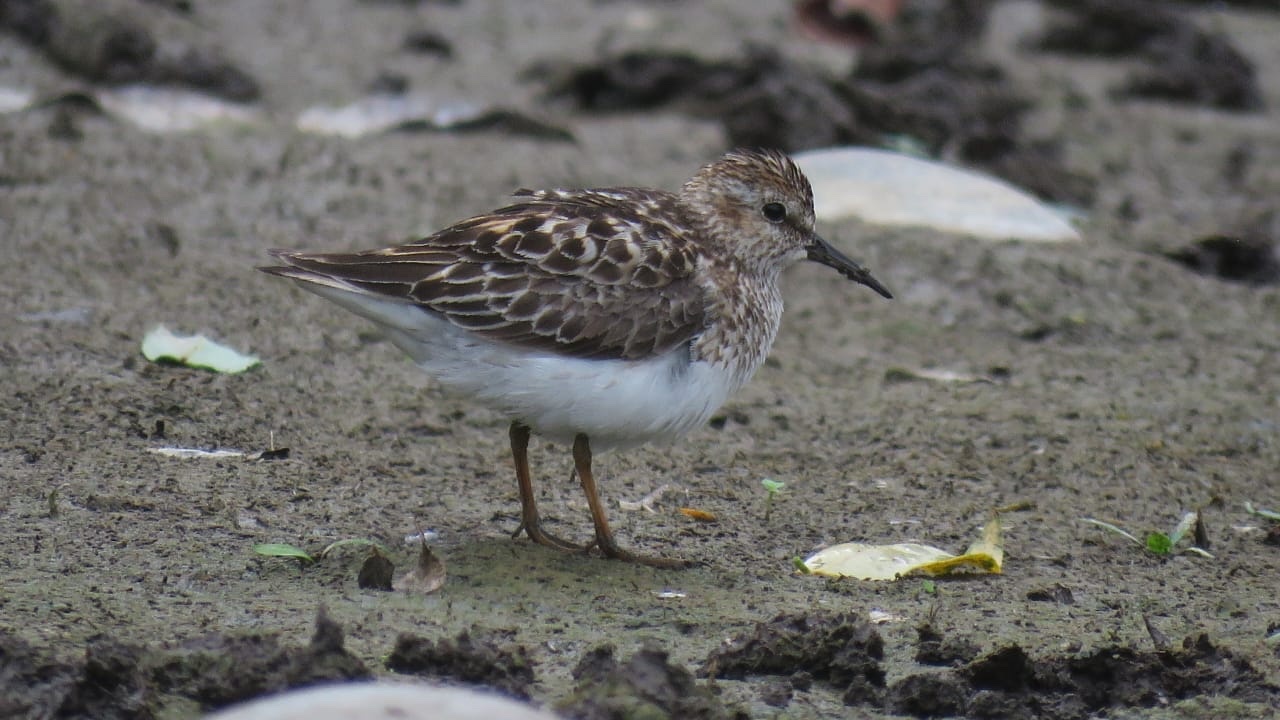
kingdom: Animalia
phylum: Chordata
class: Aves
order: Charadriiformes
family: Scolopacidae
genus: Calidris
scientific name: Calidris minutilla
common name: Least sandpiper
